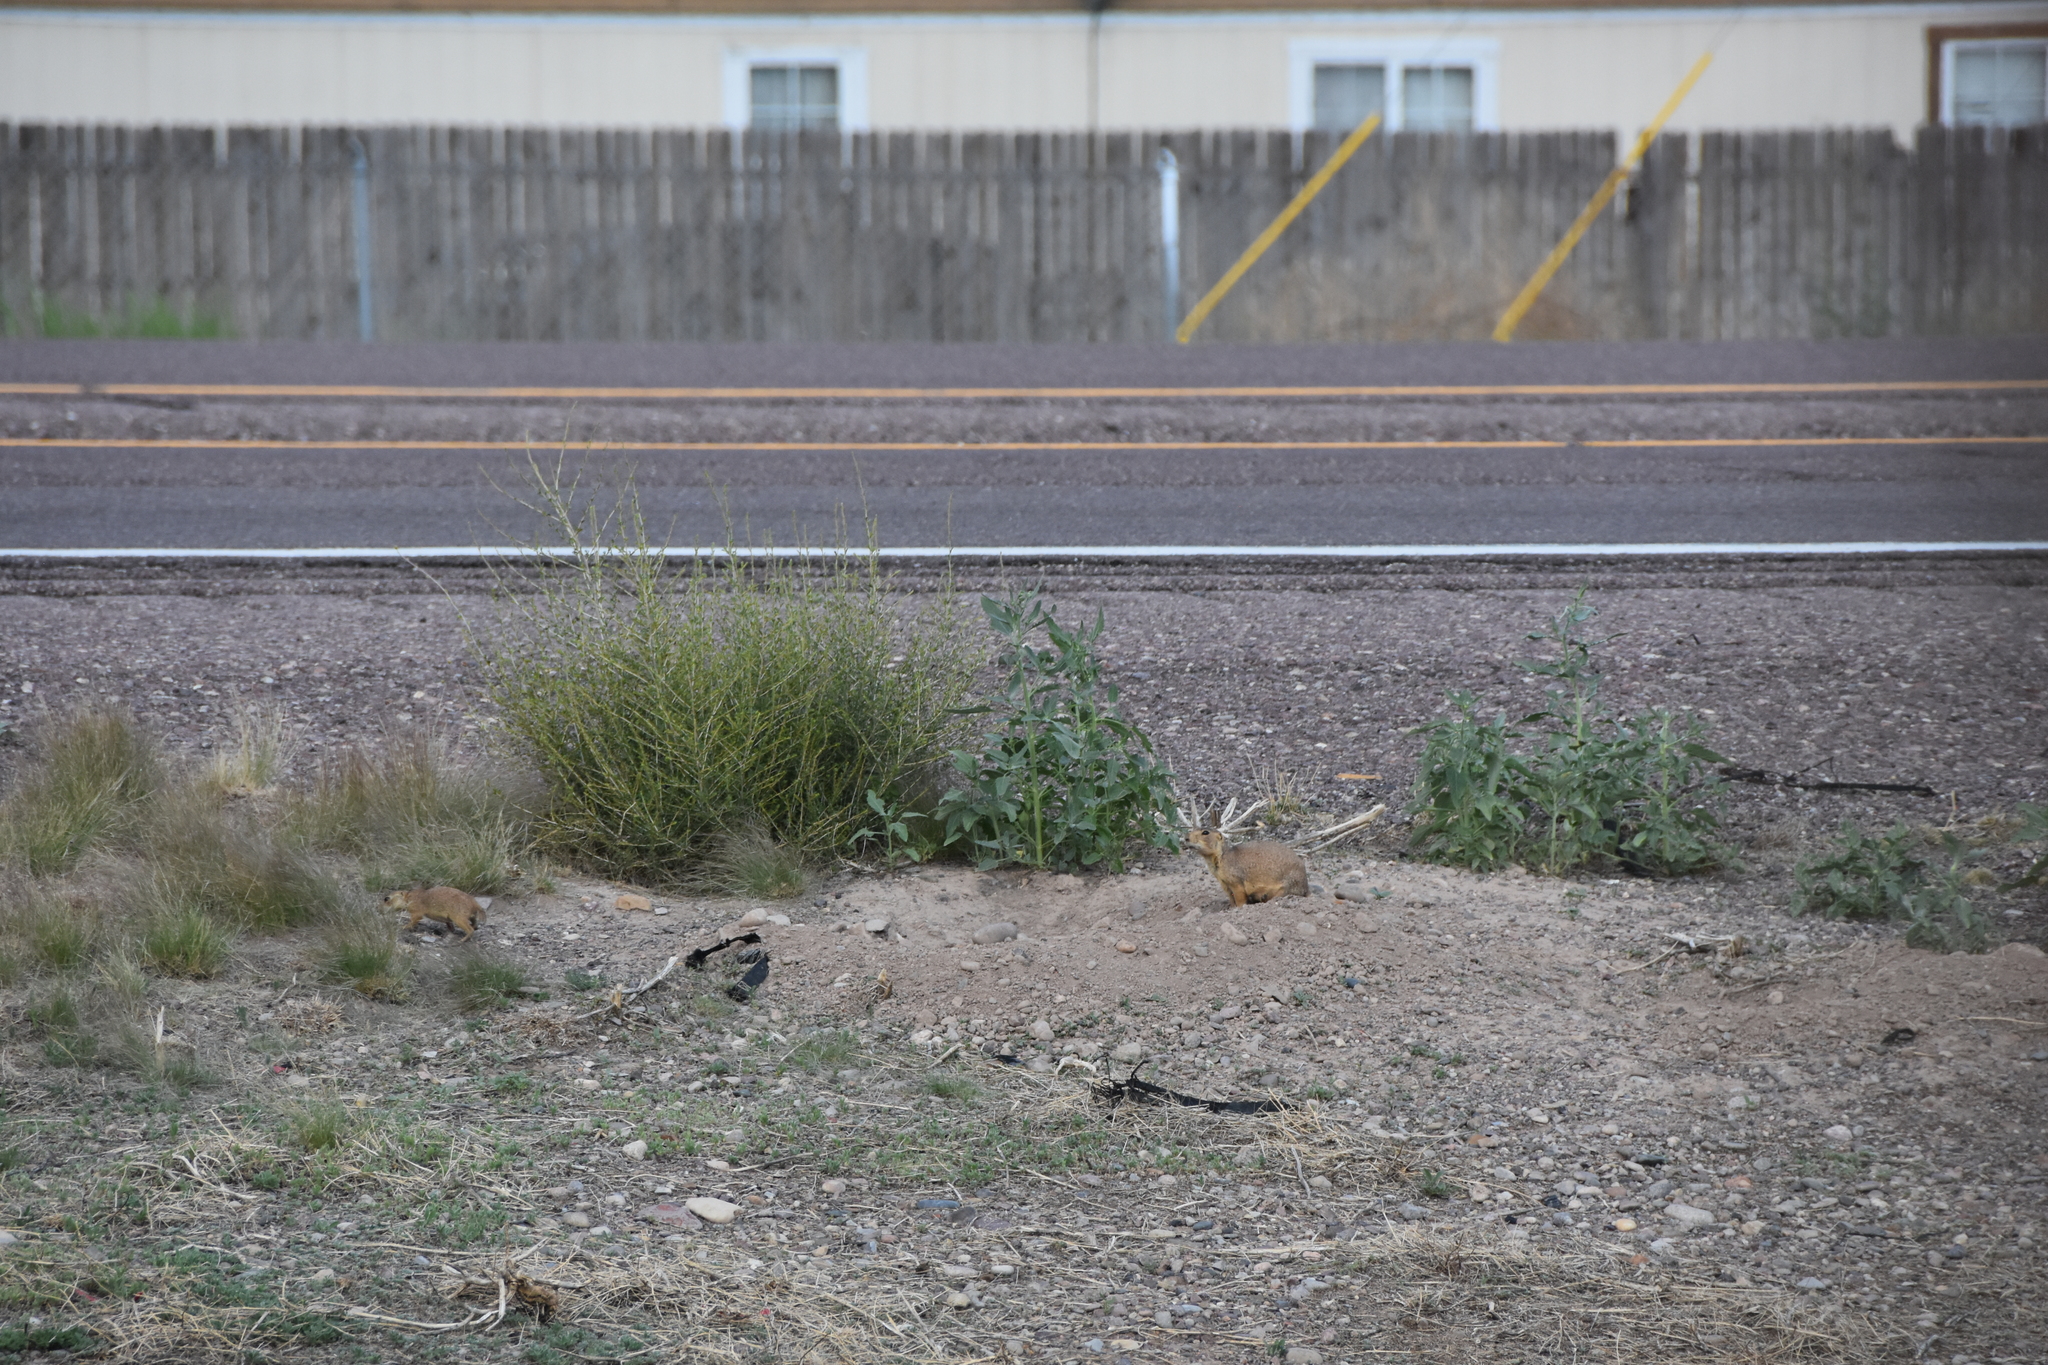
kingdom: Animalia
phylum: Chordata
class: Mammalia
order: Rodentia
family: Sciuridae
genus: Cynomys
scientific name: Cynomys gunnisoni
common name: Gunnison's prairie dog
